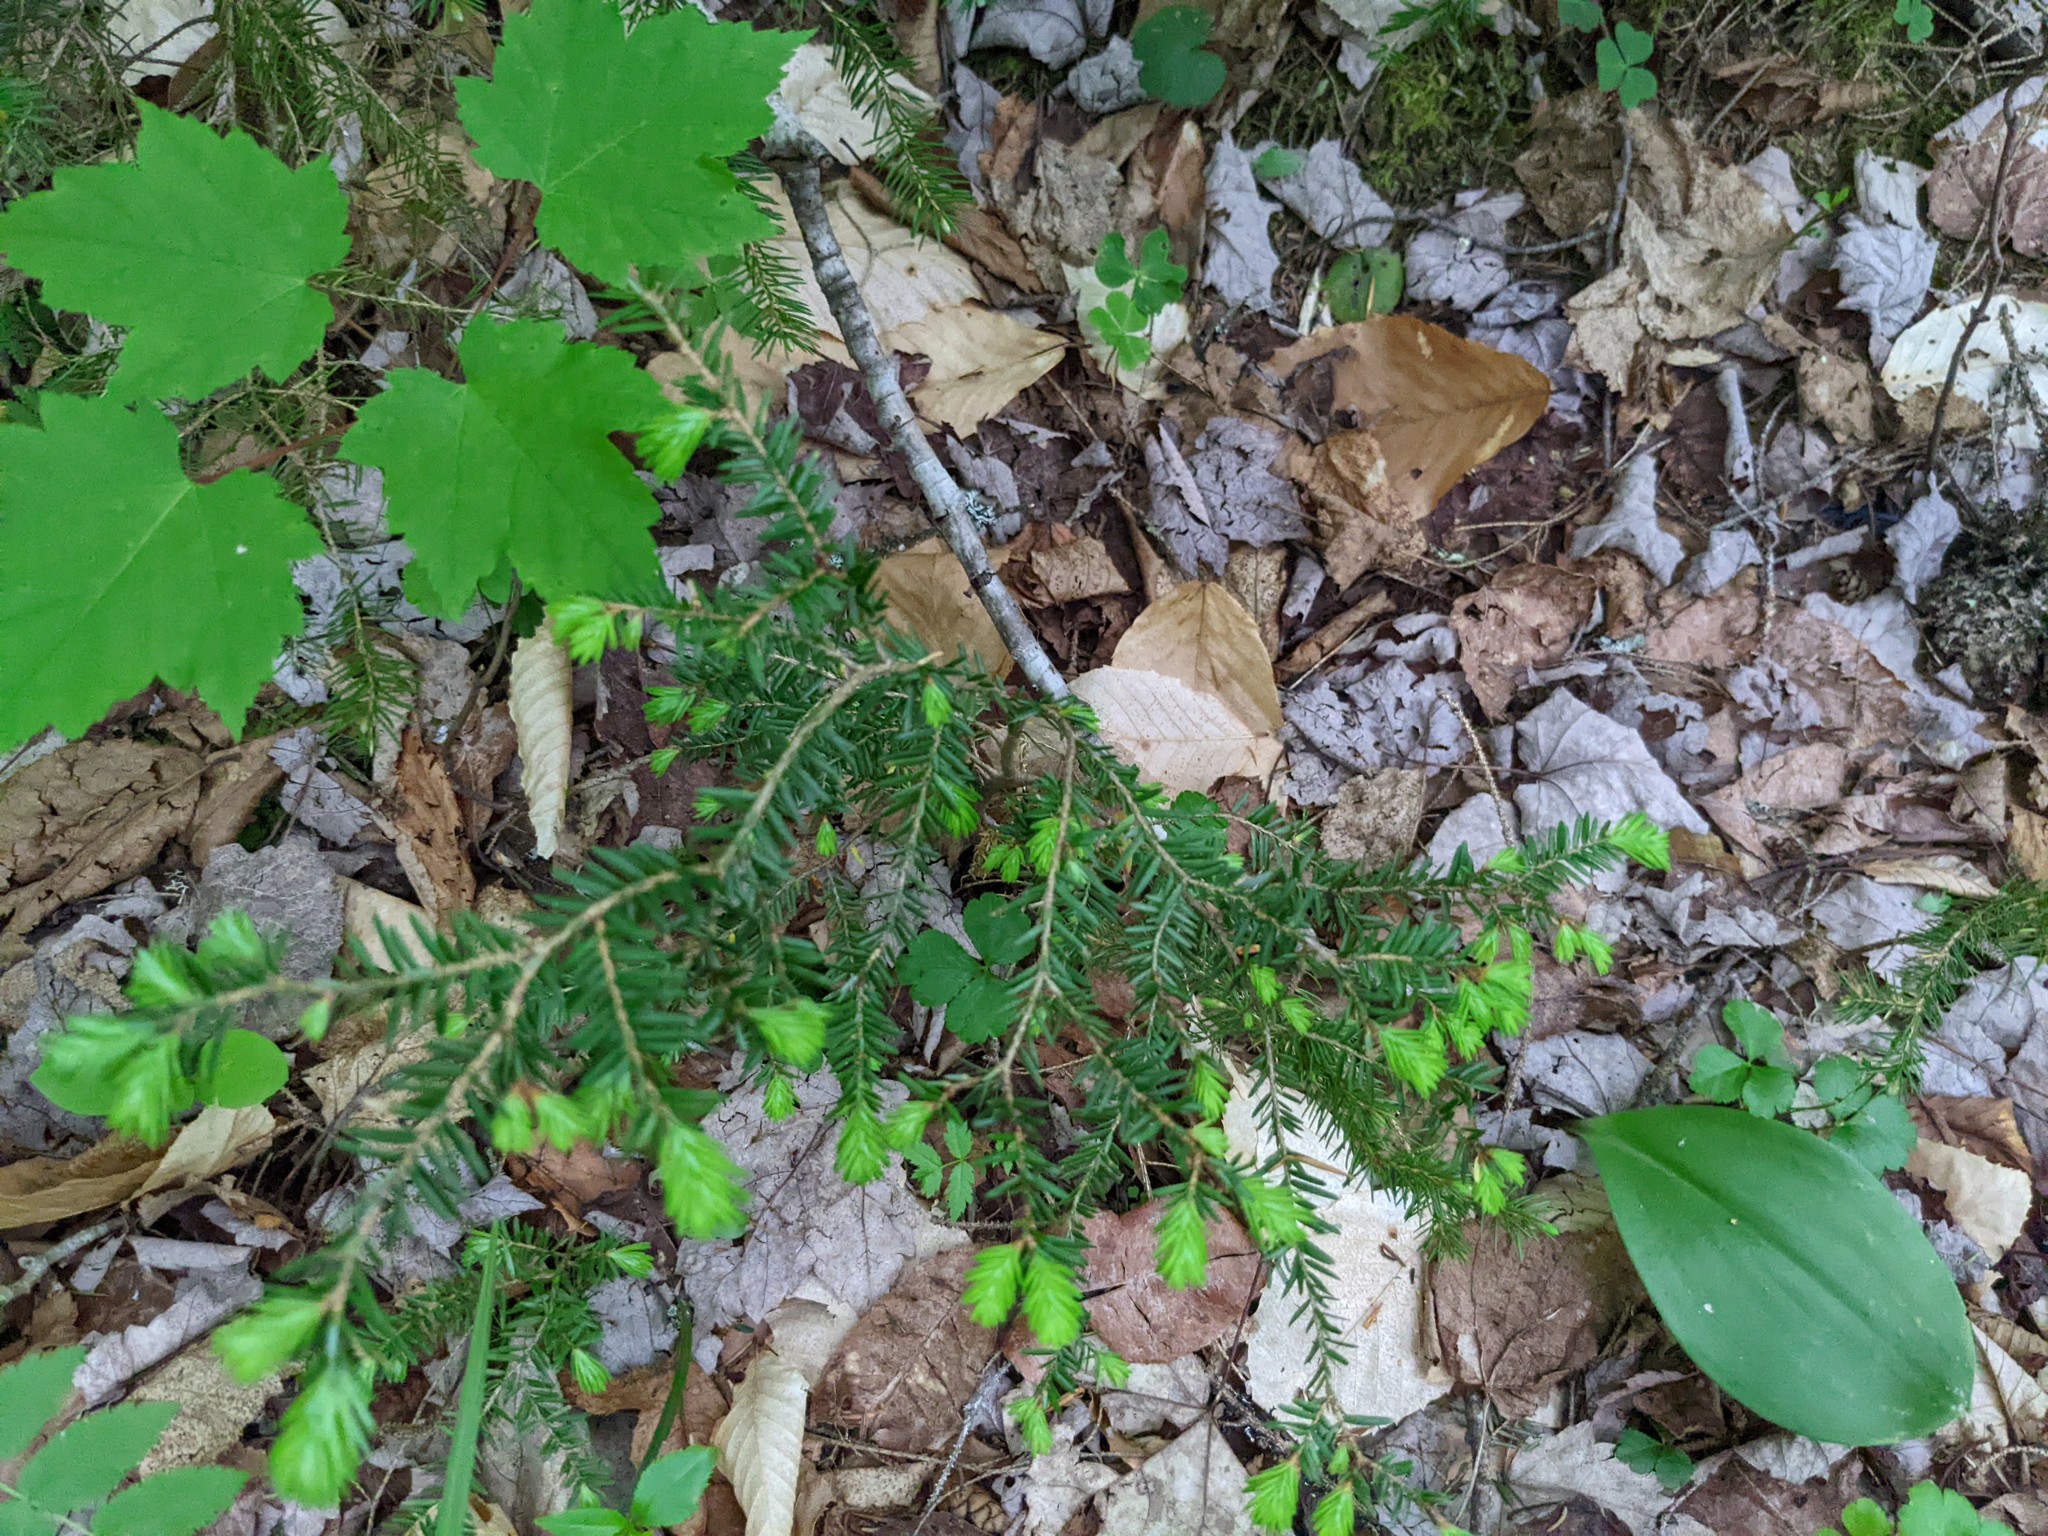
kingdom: Plantae
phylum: Tracheophyta
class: Pinopsida
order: Pinales
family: Pinaceae
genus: Tsuga
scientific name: Tsuga canadensis
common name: Eastern hemlock
